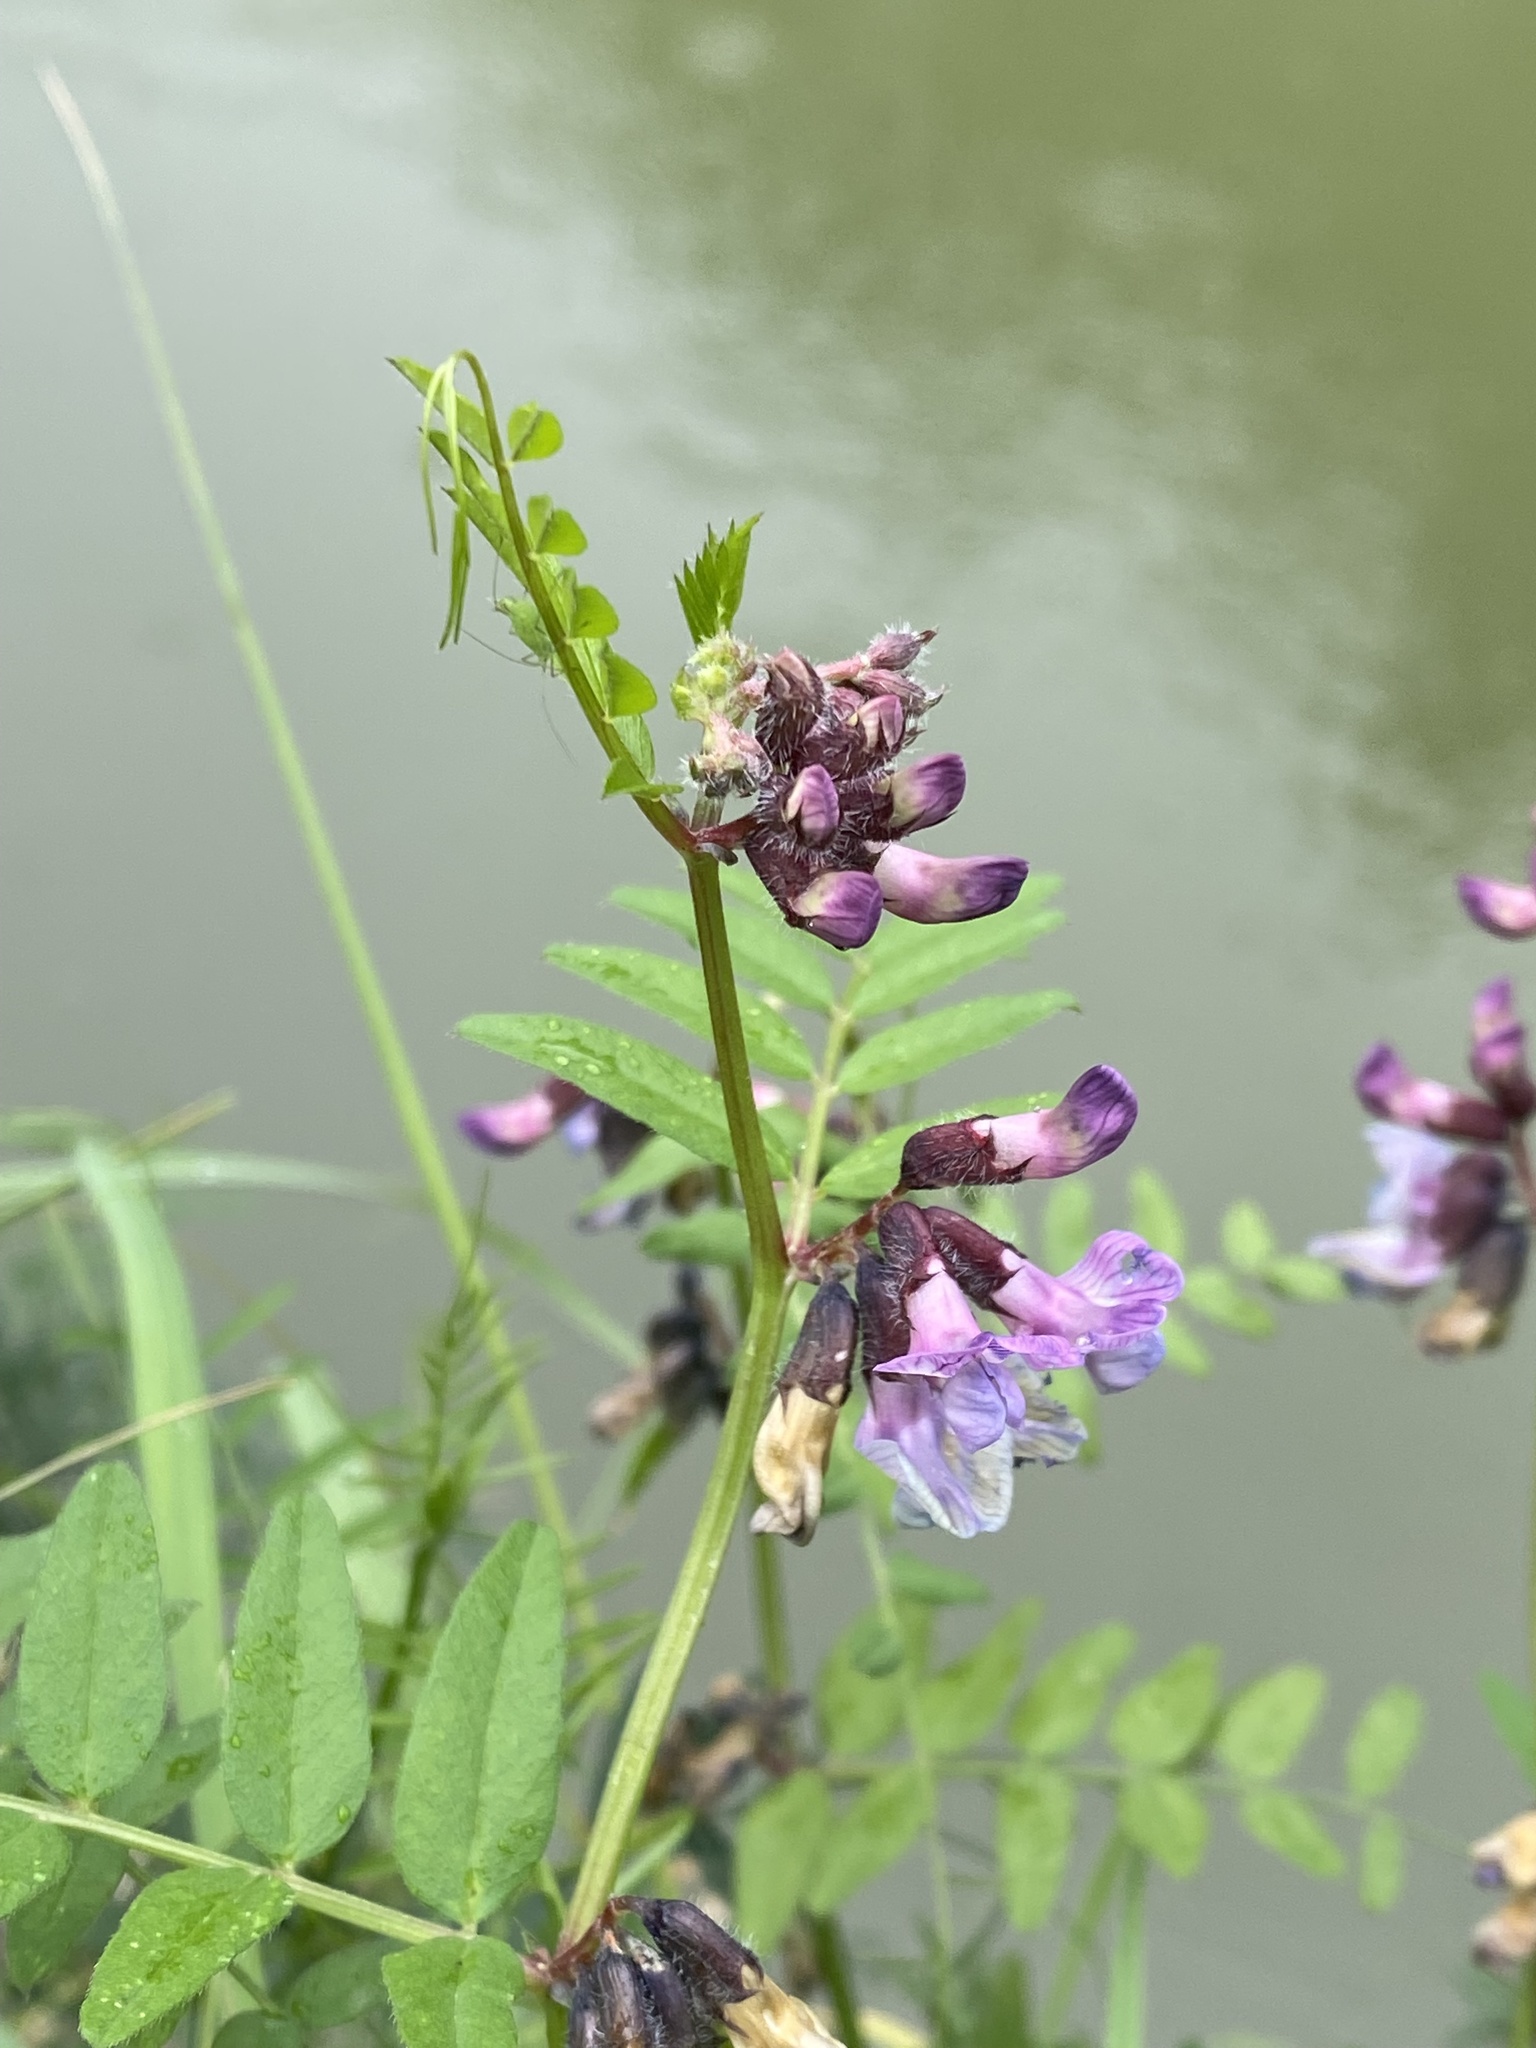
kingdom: Plantae
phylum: Tracheophyta
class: Magnoliopsida
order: Fabales
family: Fabaceae
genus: Vicia
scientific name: Vicia sepium
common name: Bush vetch
